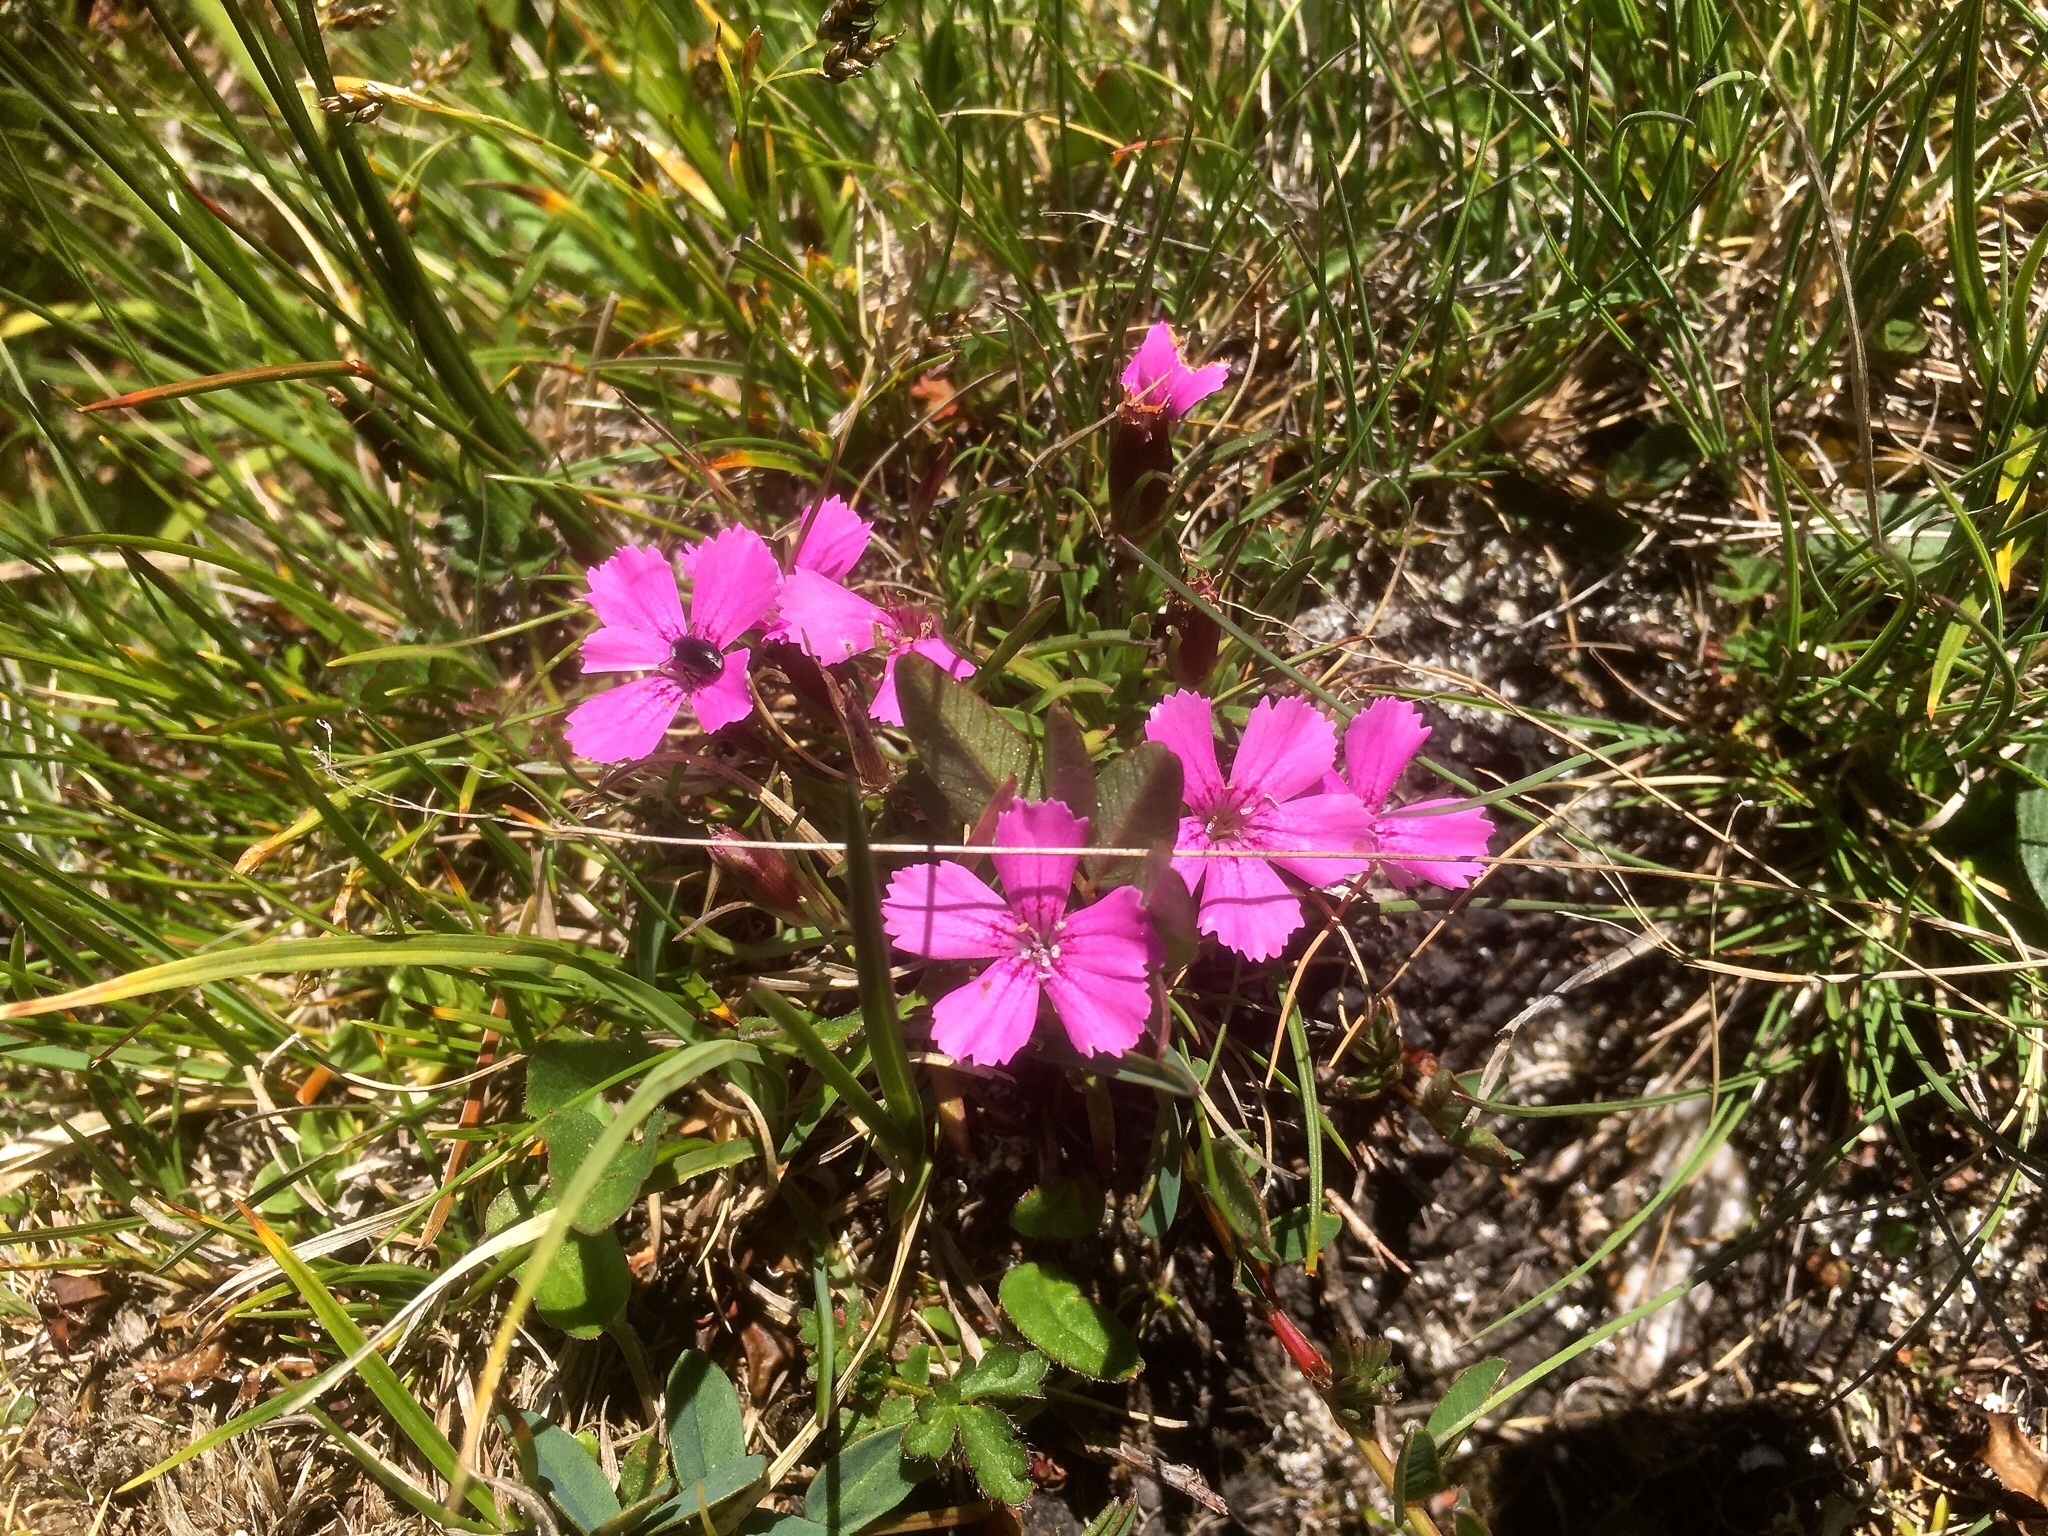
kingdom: Plantae
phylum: Tracheophyta
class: Magnoliopsida
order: Caryophyllales
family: Caryophyllaceae
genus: Dianthus
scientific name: Dianthus glacialis
